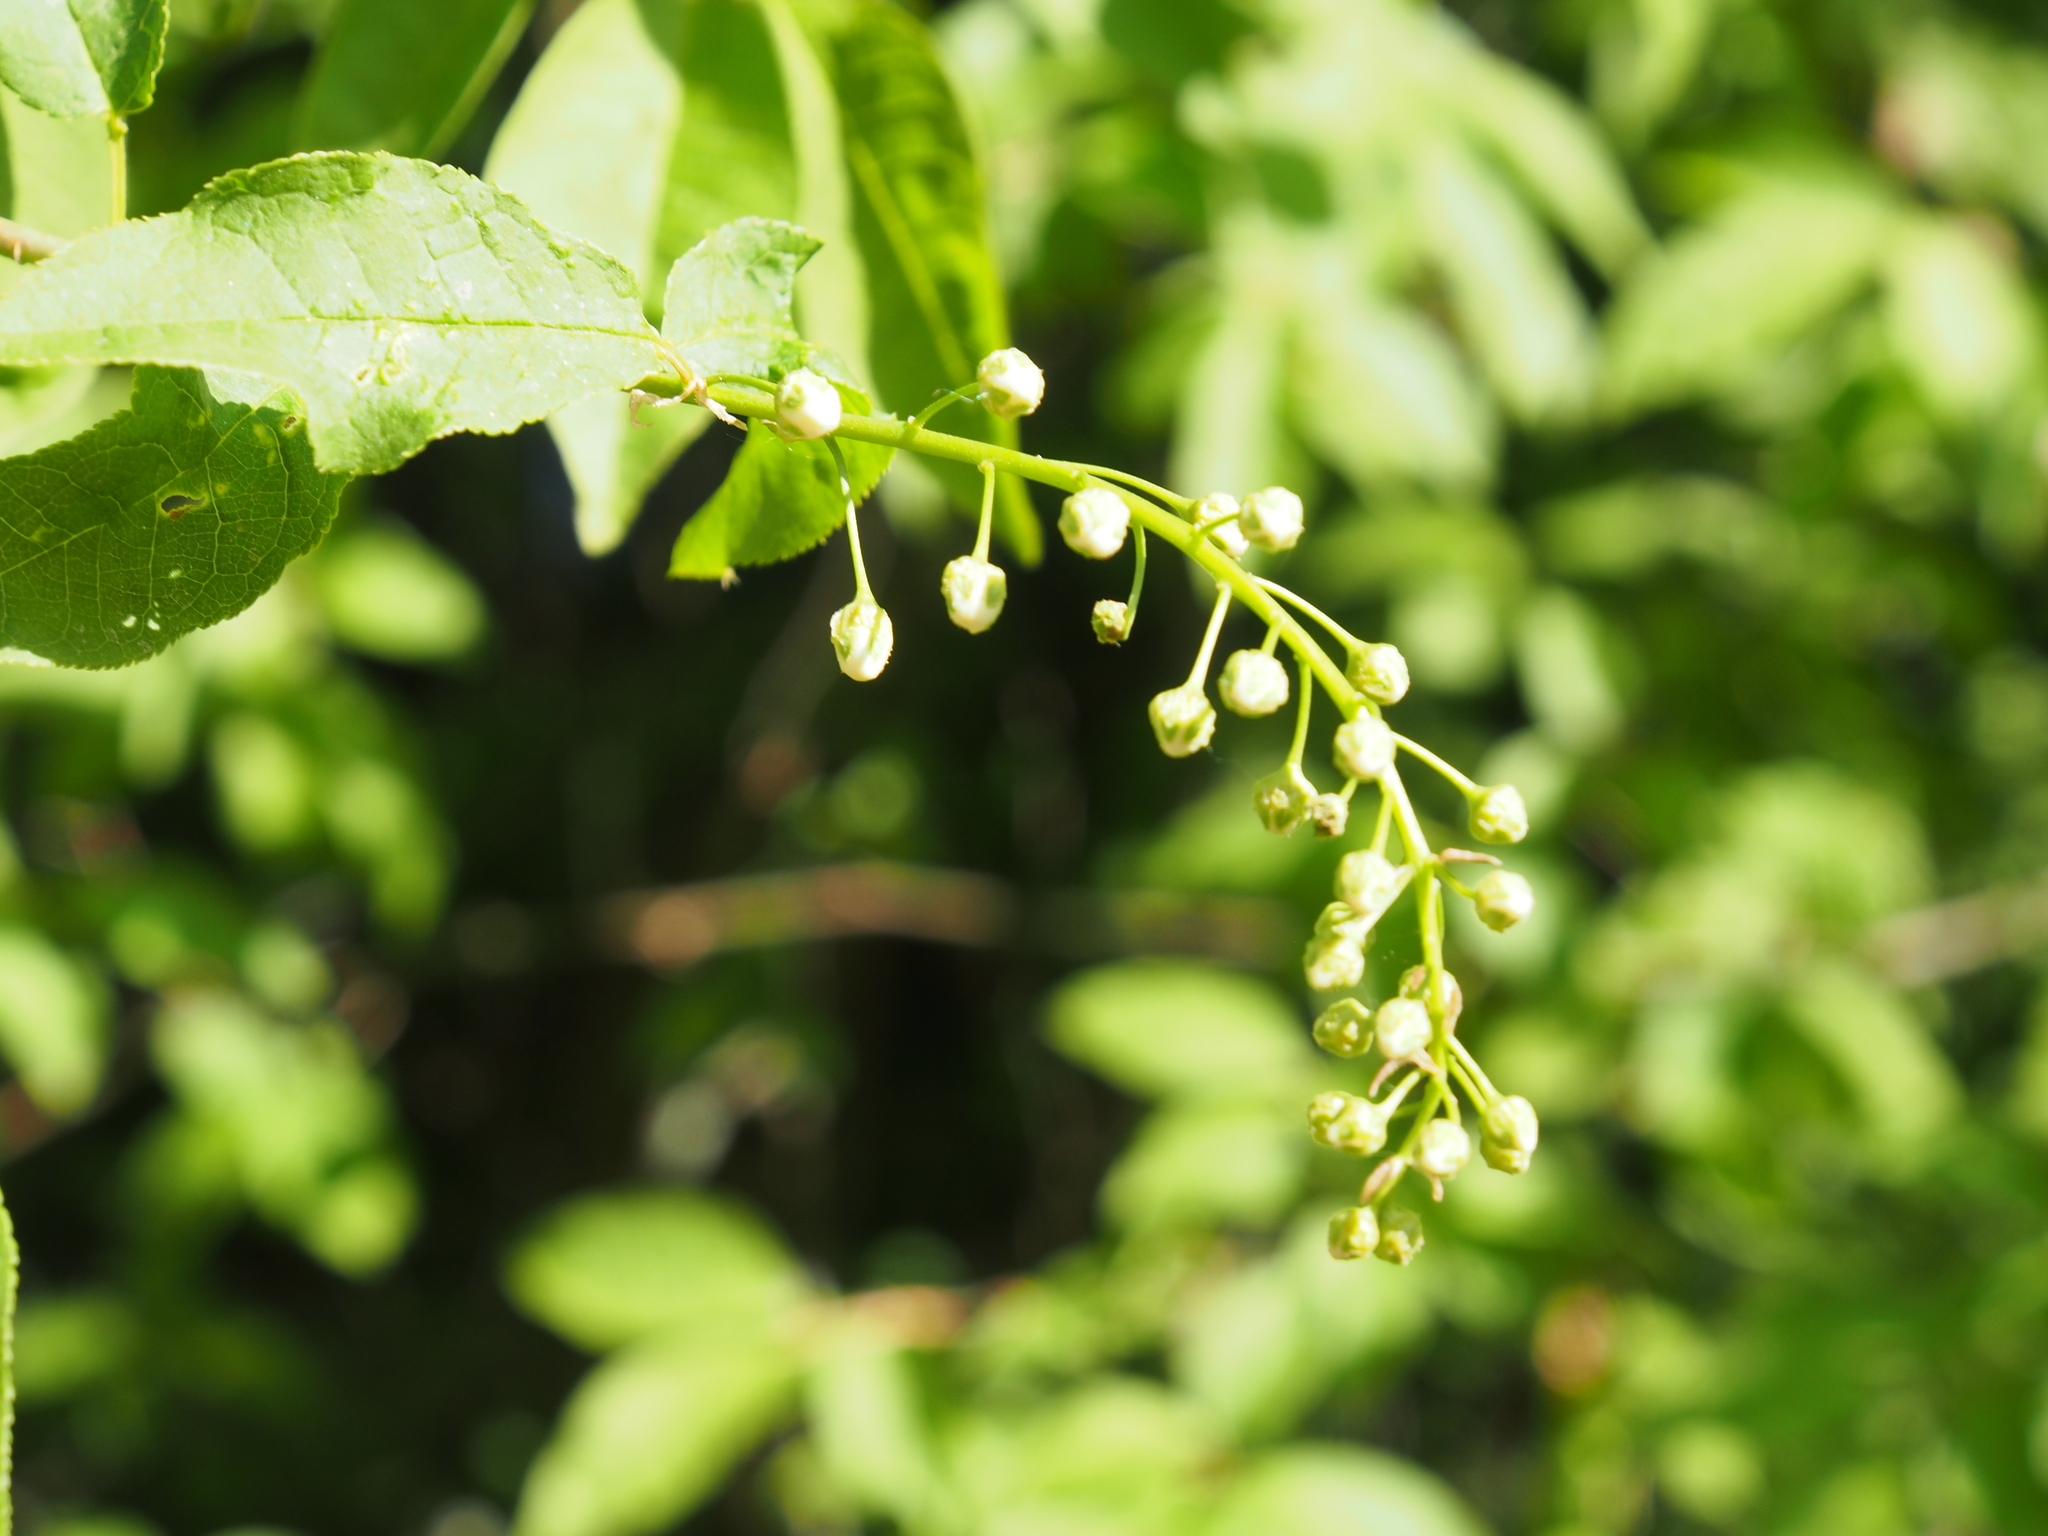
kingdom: Plantae
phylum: Tracheophyta
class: Magnoliopsida
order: Rosales
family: Rosaceae
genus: Prunus
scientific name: Prunus padus
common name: Bird cherry
